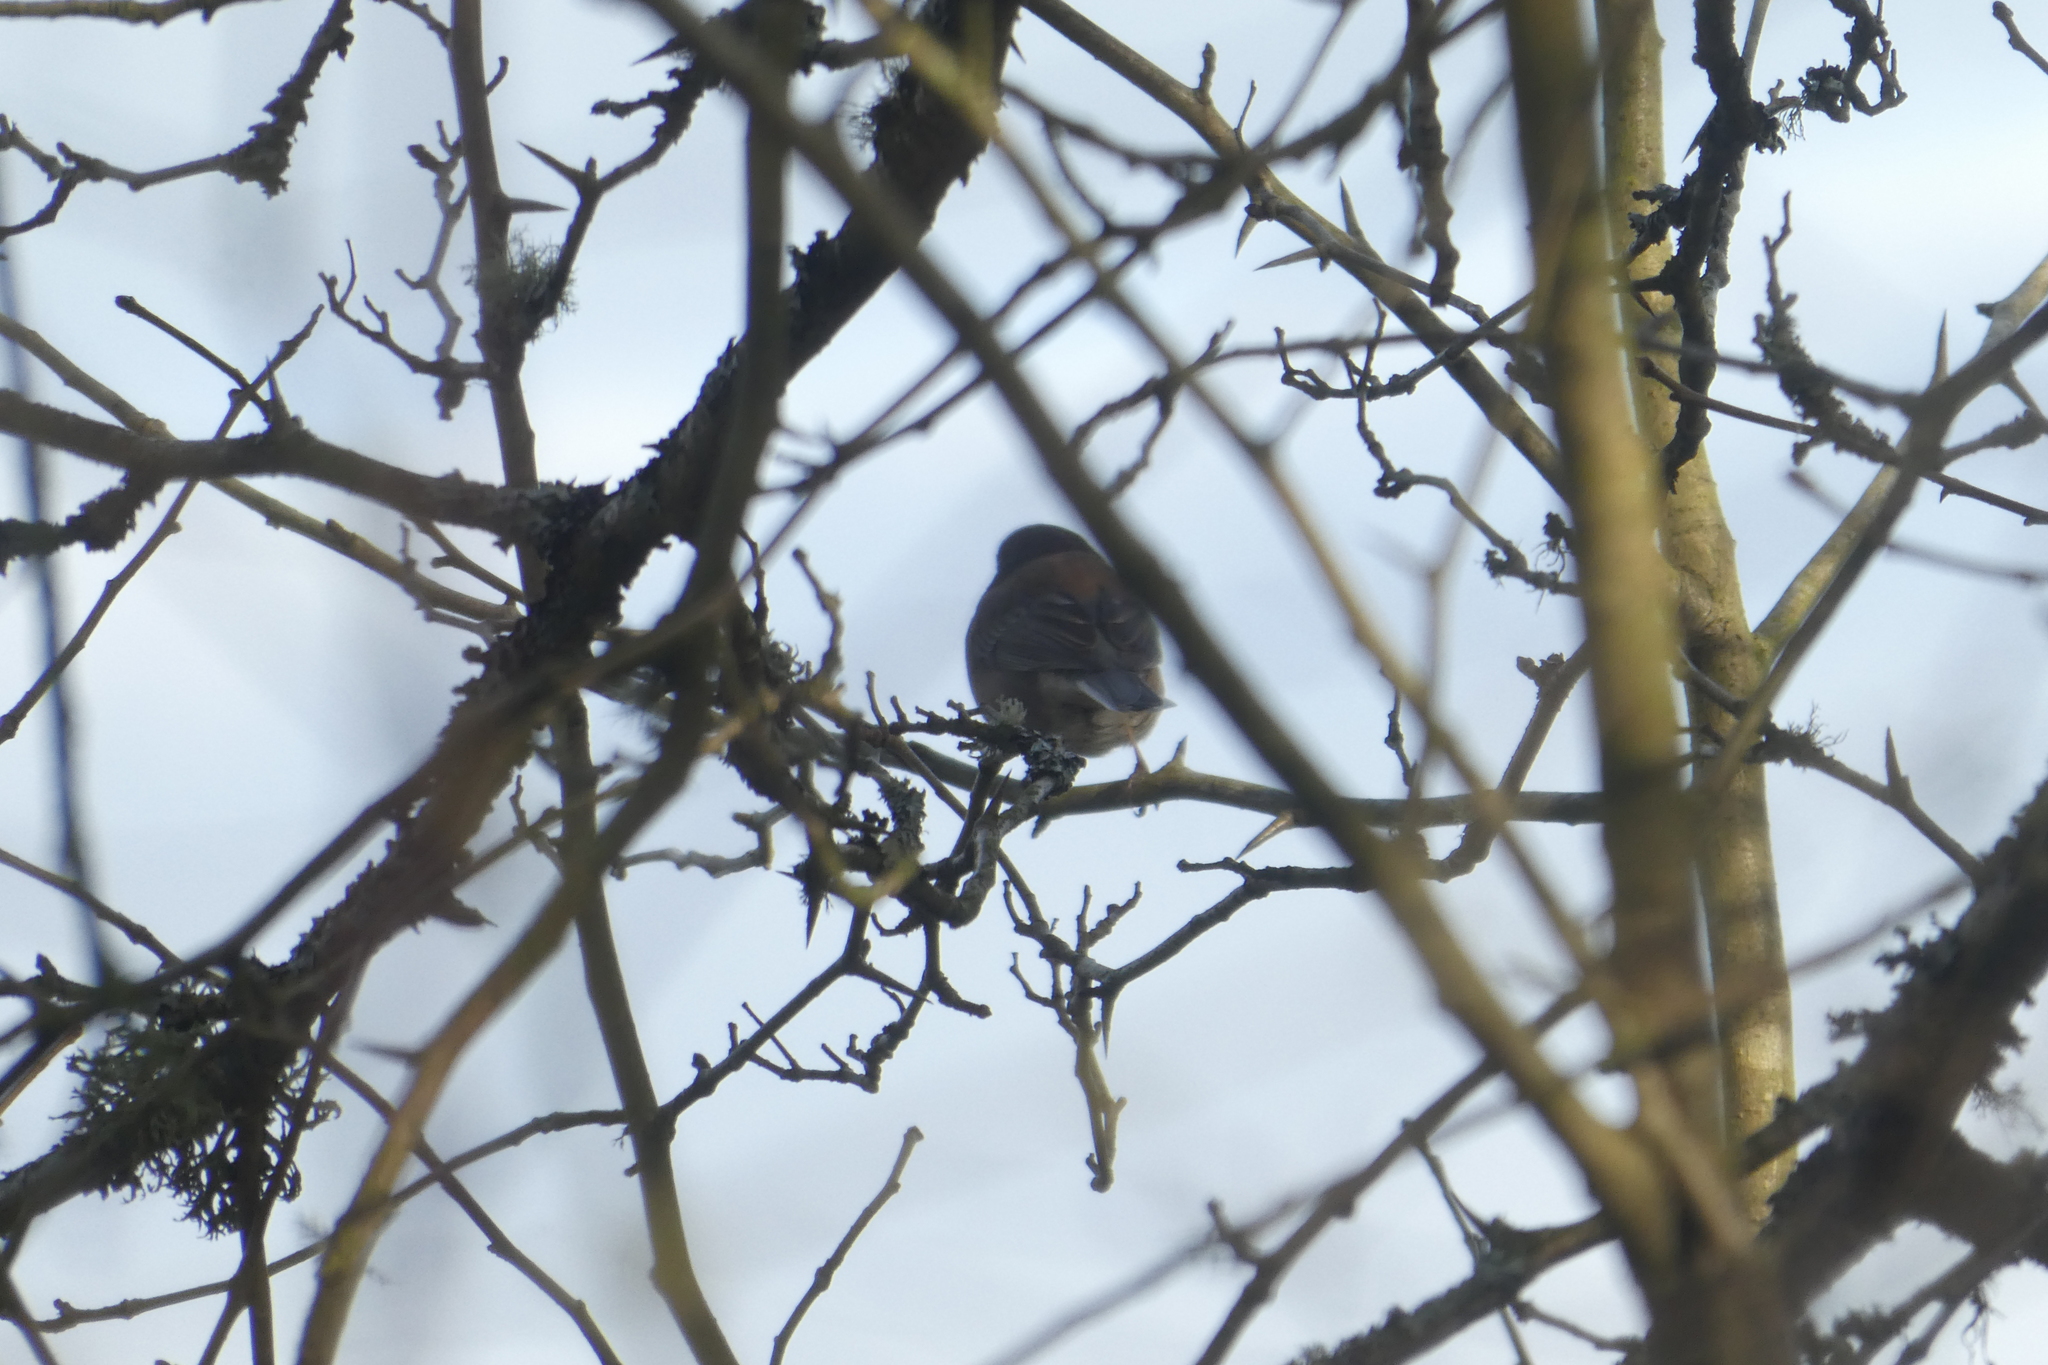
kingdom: Animalia
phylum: Chordata
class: Aves
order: Passeriformes
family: Passerellidae
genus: Junco
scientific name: Junco hyemalis
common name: Dark-eyed junco
